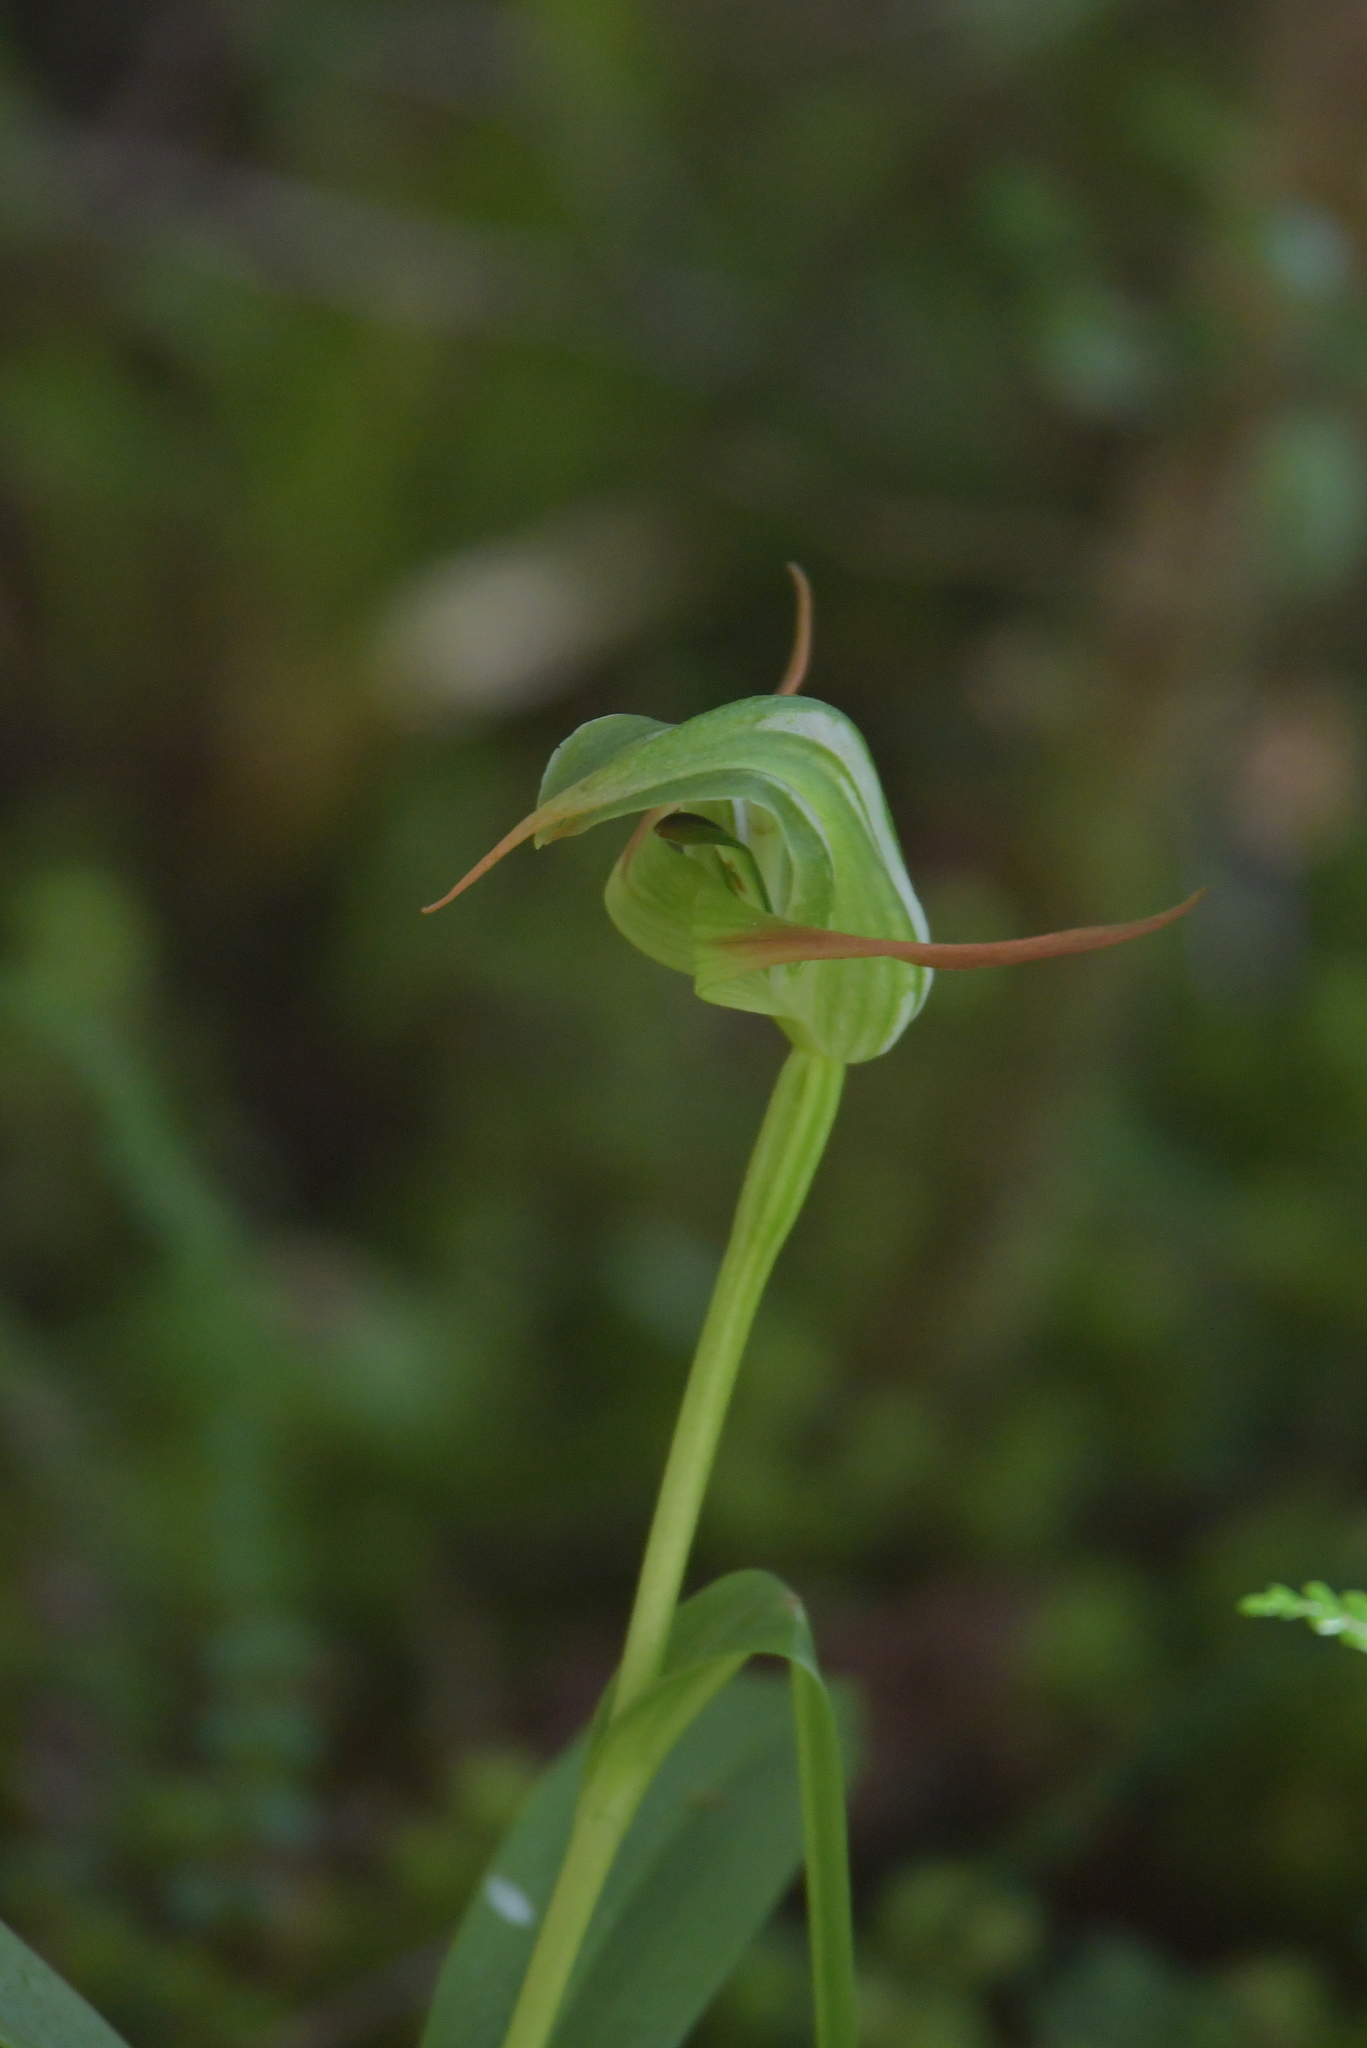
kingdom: Plantae
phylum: Tracheophyta
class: Liliopsida
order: Asparagales
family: Orchidaceae
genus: Pterostylis
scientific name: Pterostylis australis
